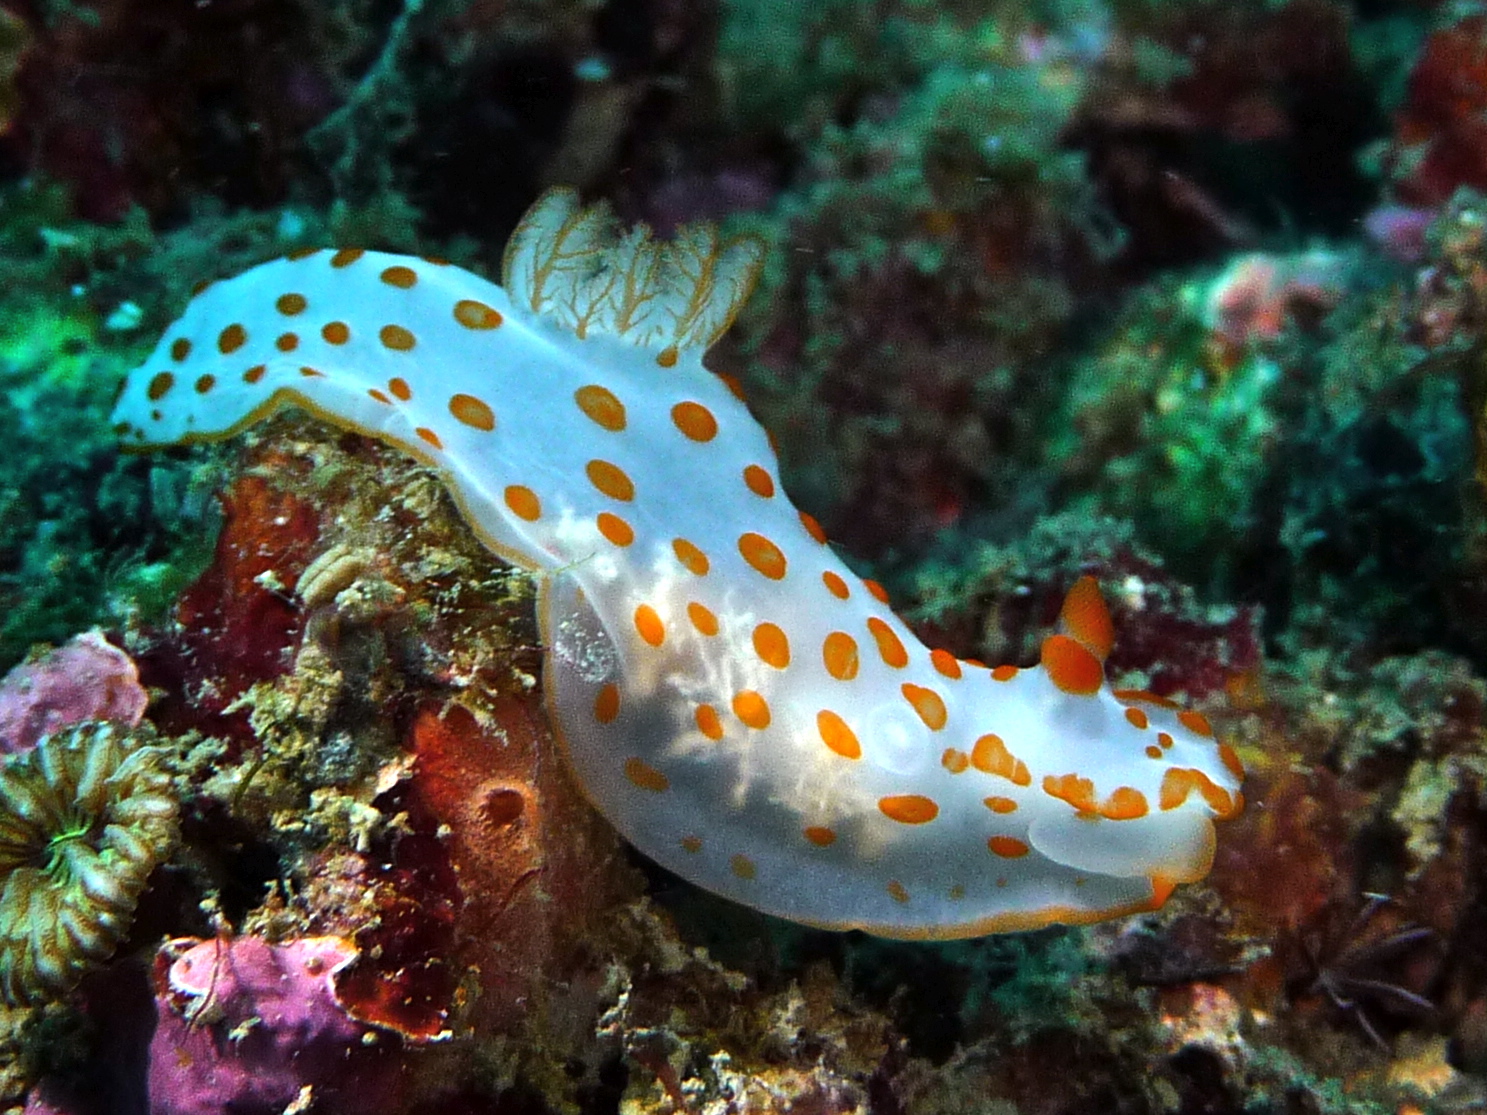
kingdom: Animalia
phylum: Mollusca
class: Gastropoda
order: Nudibranchia
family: Polyceridae
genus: Gymnodoris
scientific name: Gymnodoris impudica
